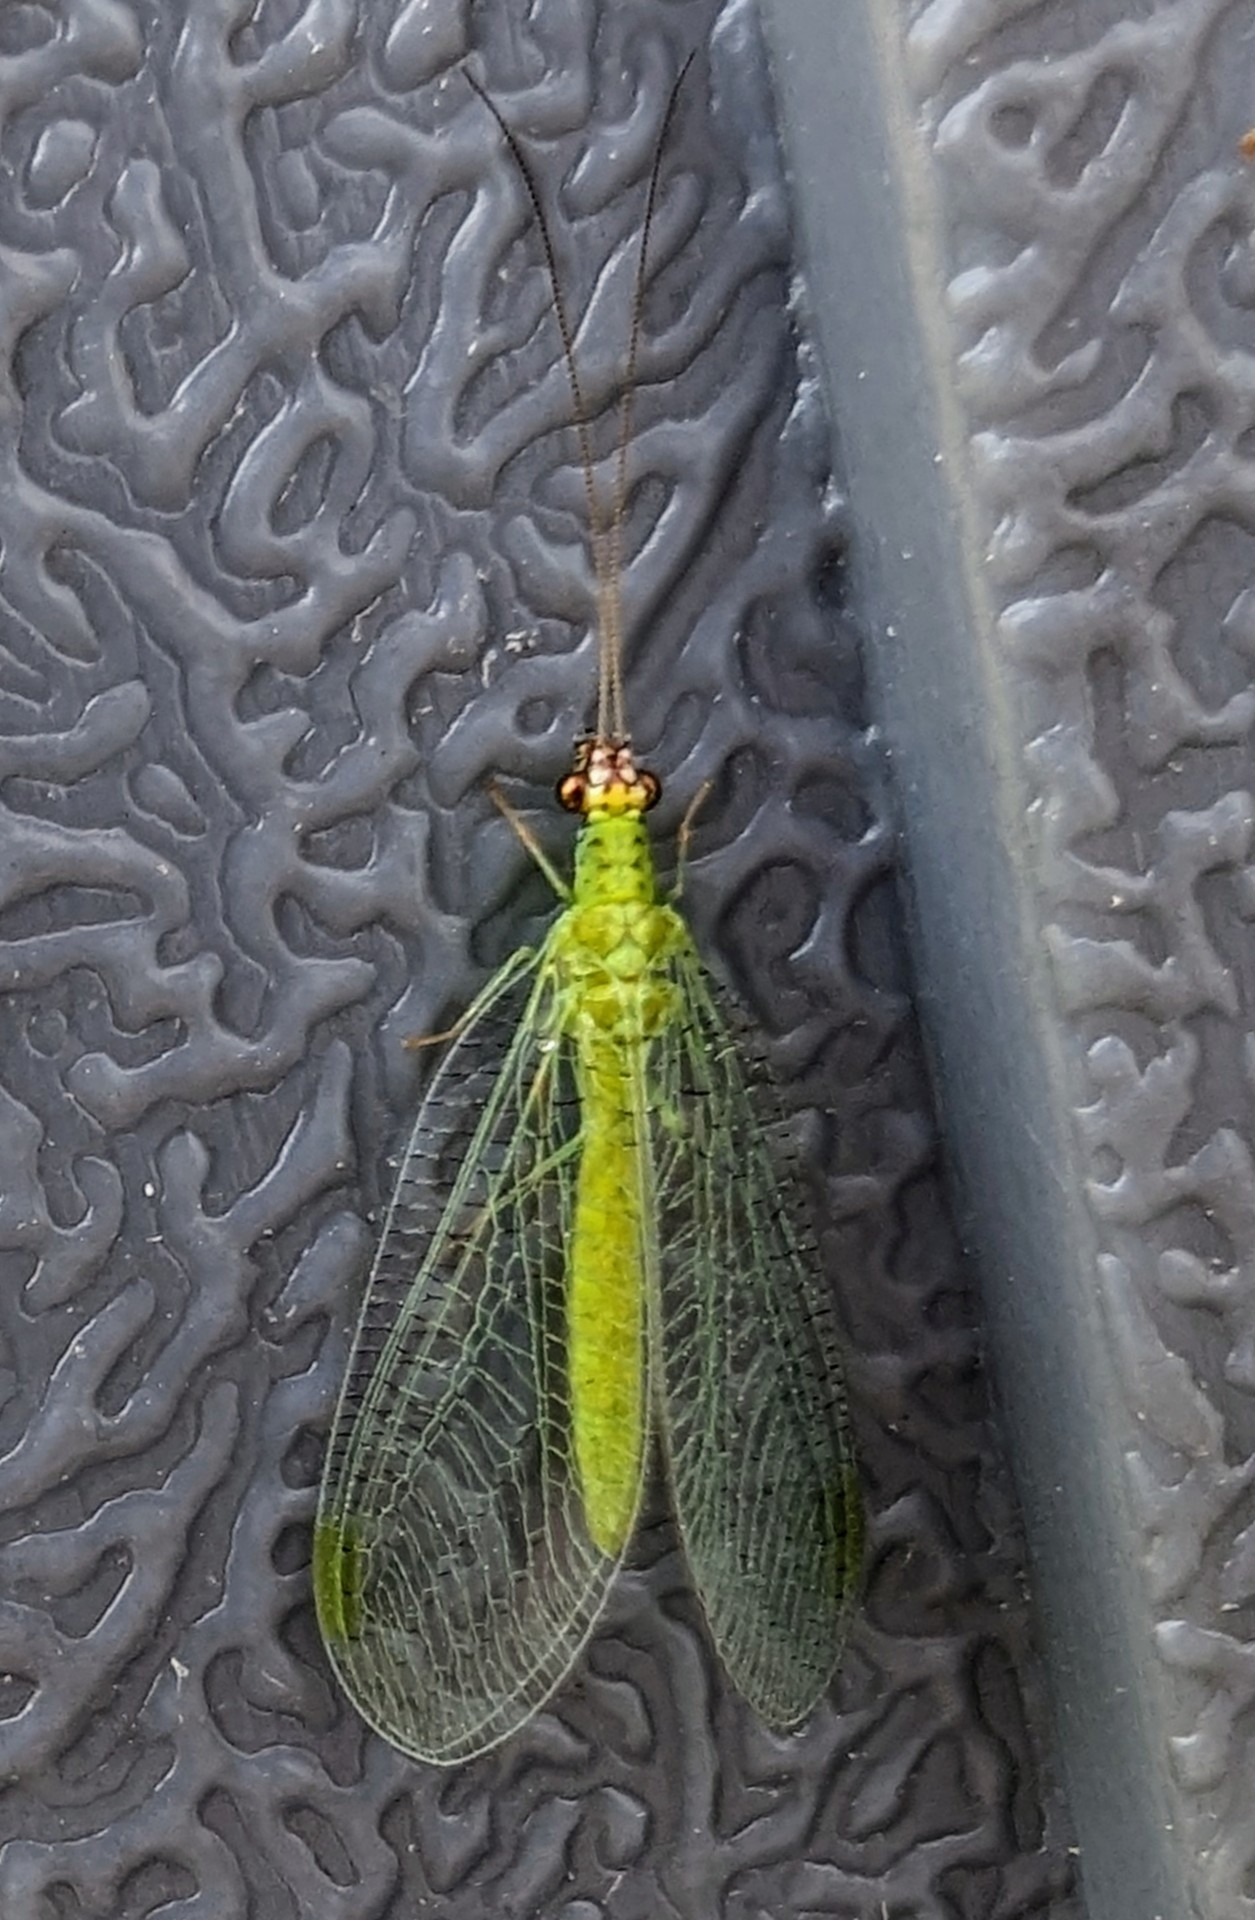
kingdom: Animalia
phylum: Arthropoda
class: Insecta
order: Neuroptera
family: Chrysopidae
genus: Chrysopa
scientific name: Chrysopa oculata
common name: Golden-eyed lacewing
